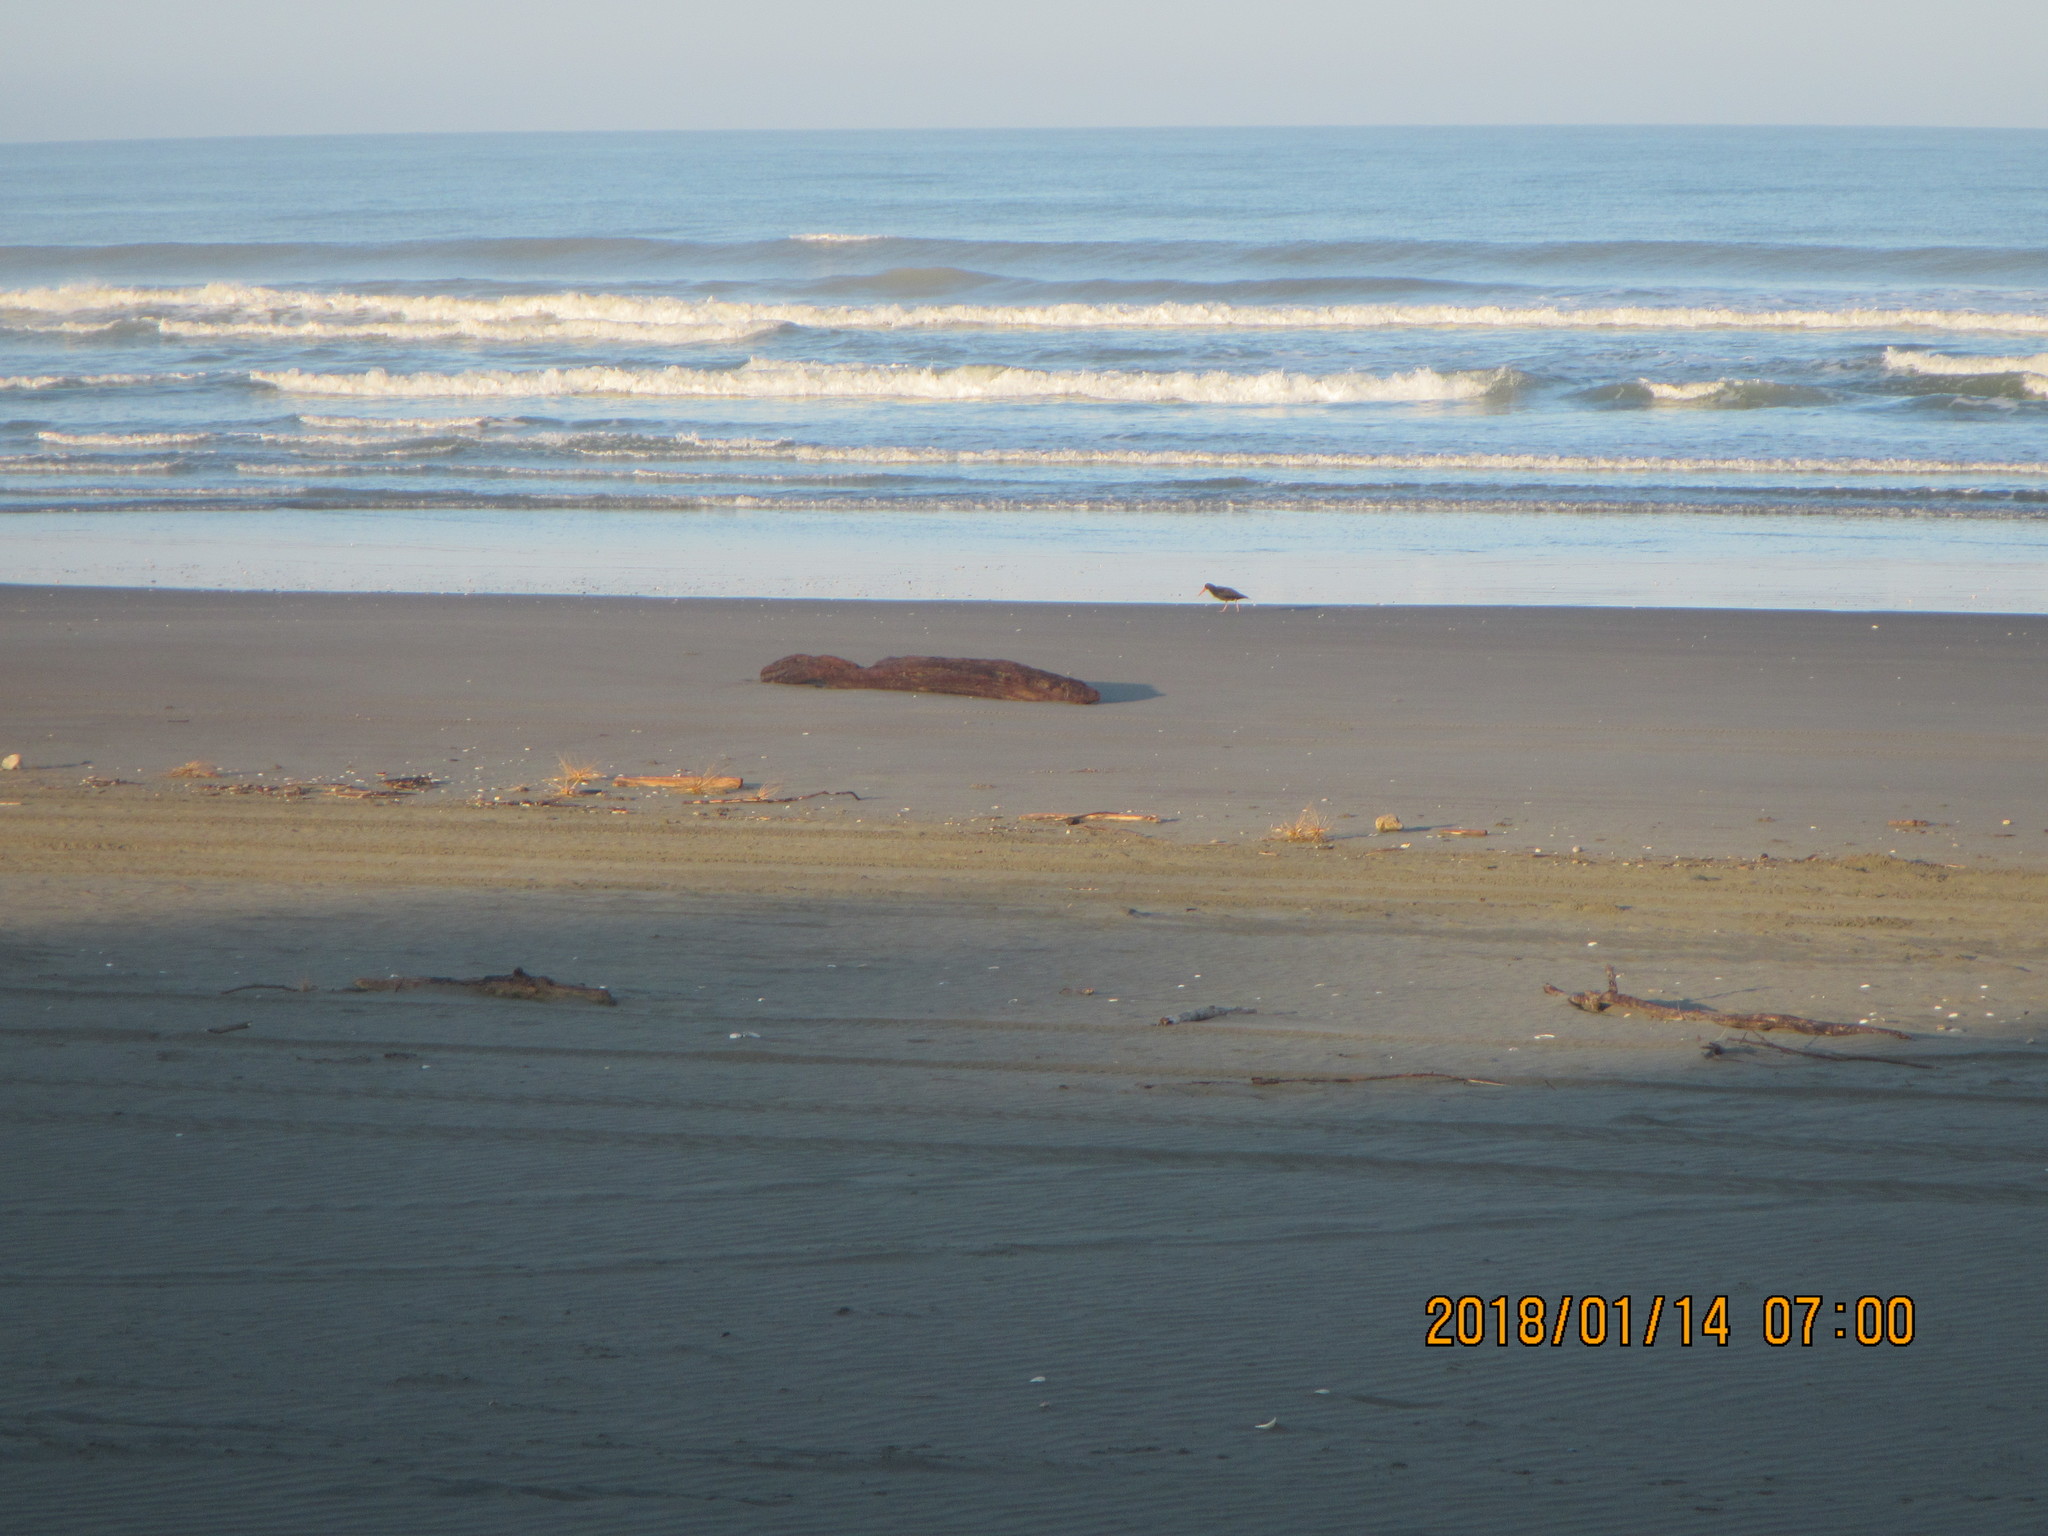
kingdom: Animalia
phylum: Chordata
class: Aves
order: Charadriiformes
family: Haematopodidae
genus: Haematopus
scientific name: Haematopus unicolor
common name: Variable oystercatcher
